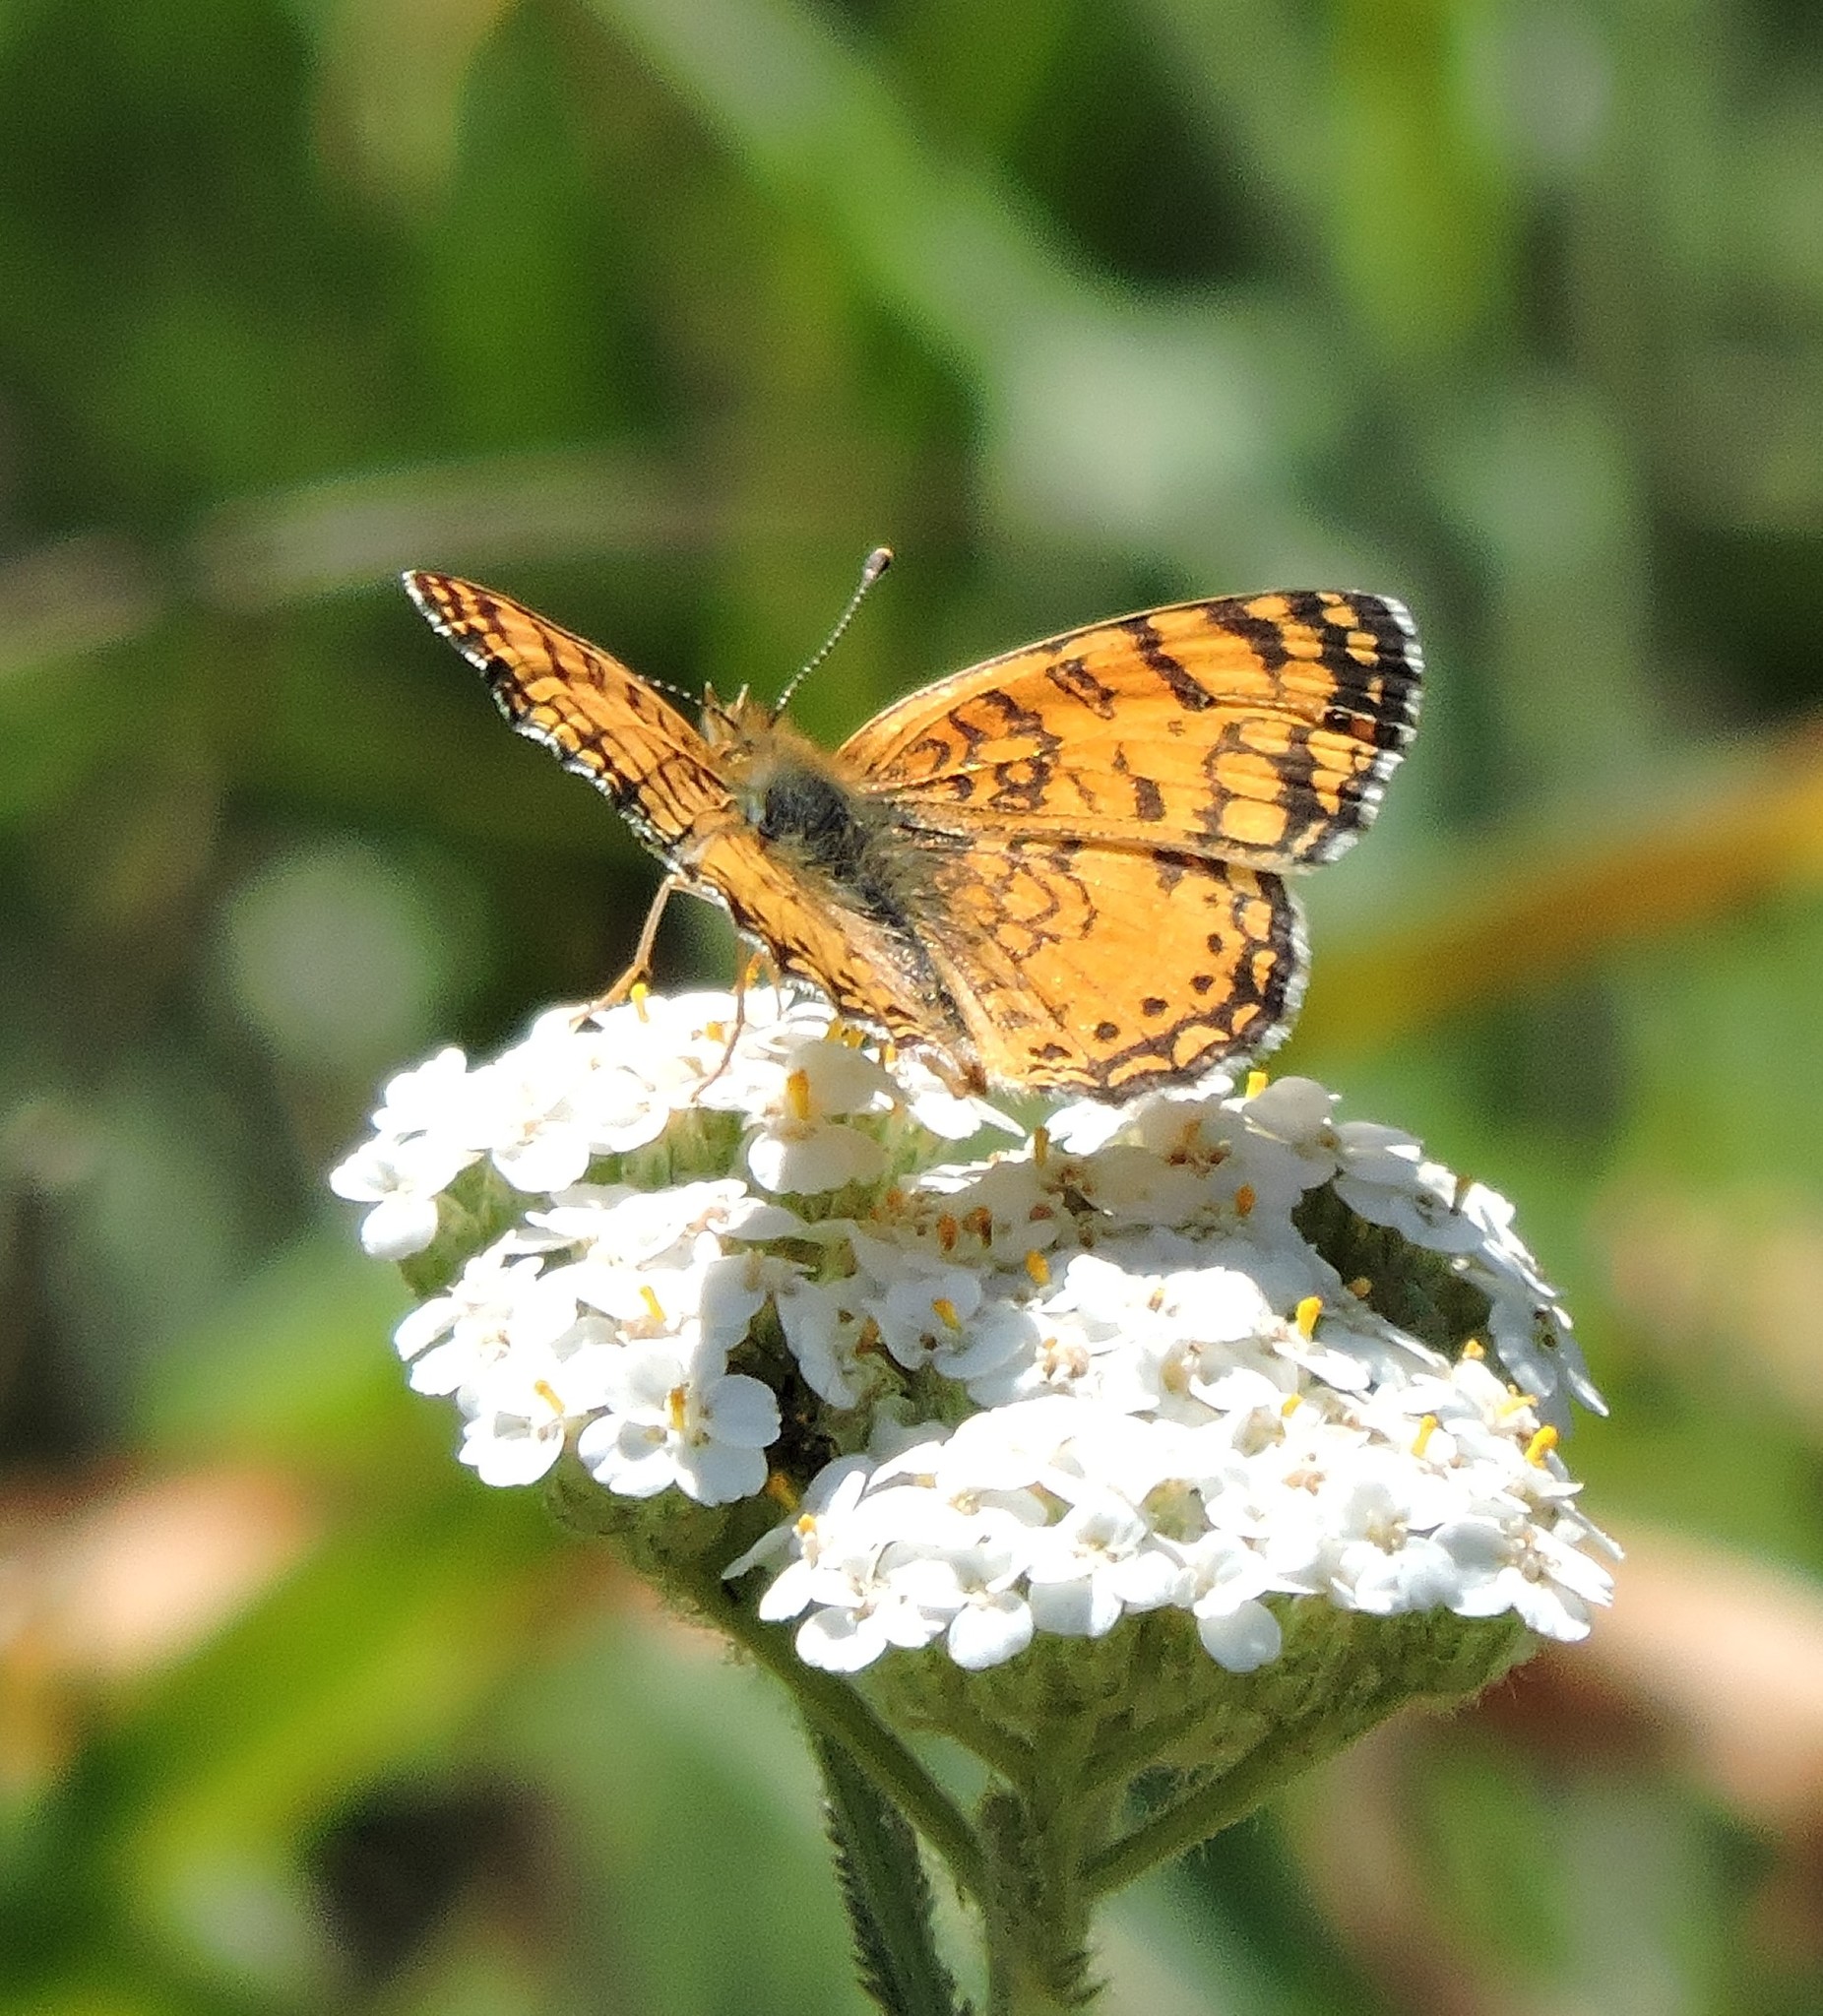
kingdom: Animalia
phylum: Arthropoda
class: Insecta
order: Lepidoptera
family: Nymphalidae
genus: Eresia
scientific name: Eresia aveyrona
